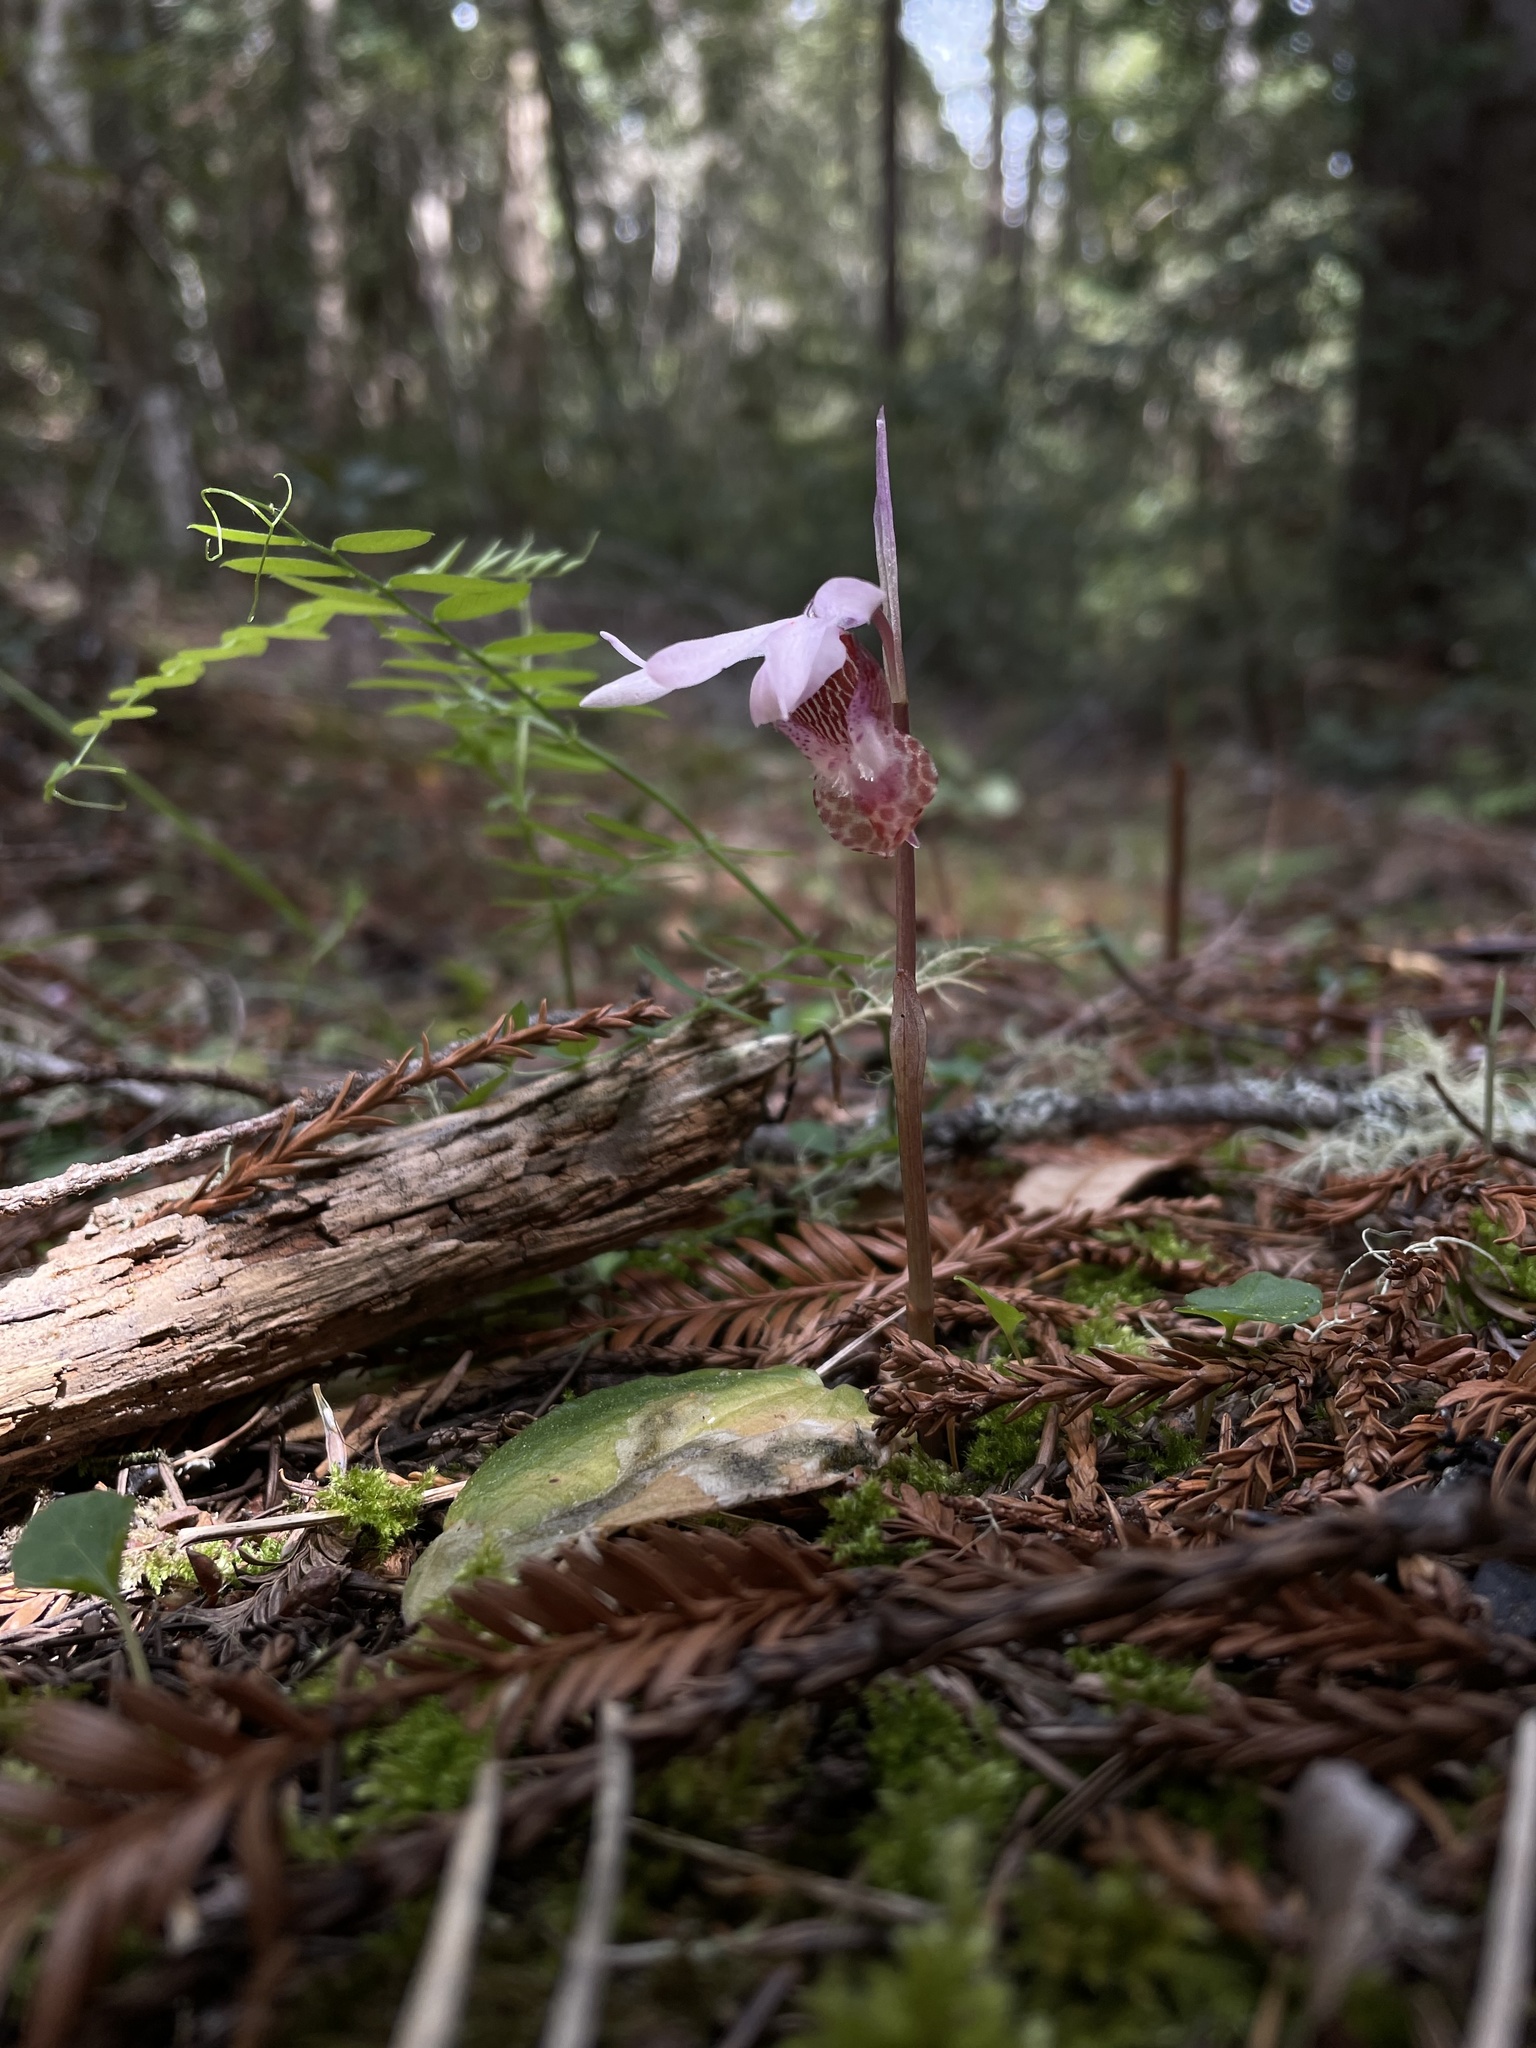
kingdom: Plantae
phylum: Tracheophyta
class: Liliopsida
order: Asparagales
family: Orchidaceae
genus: Calypso
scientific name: Calypso bulbosa
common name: Calypso
